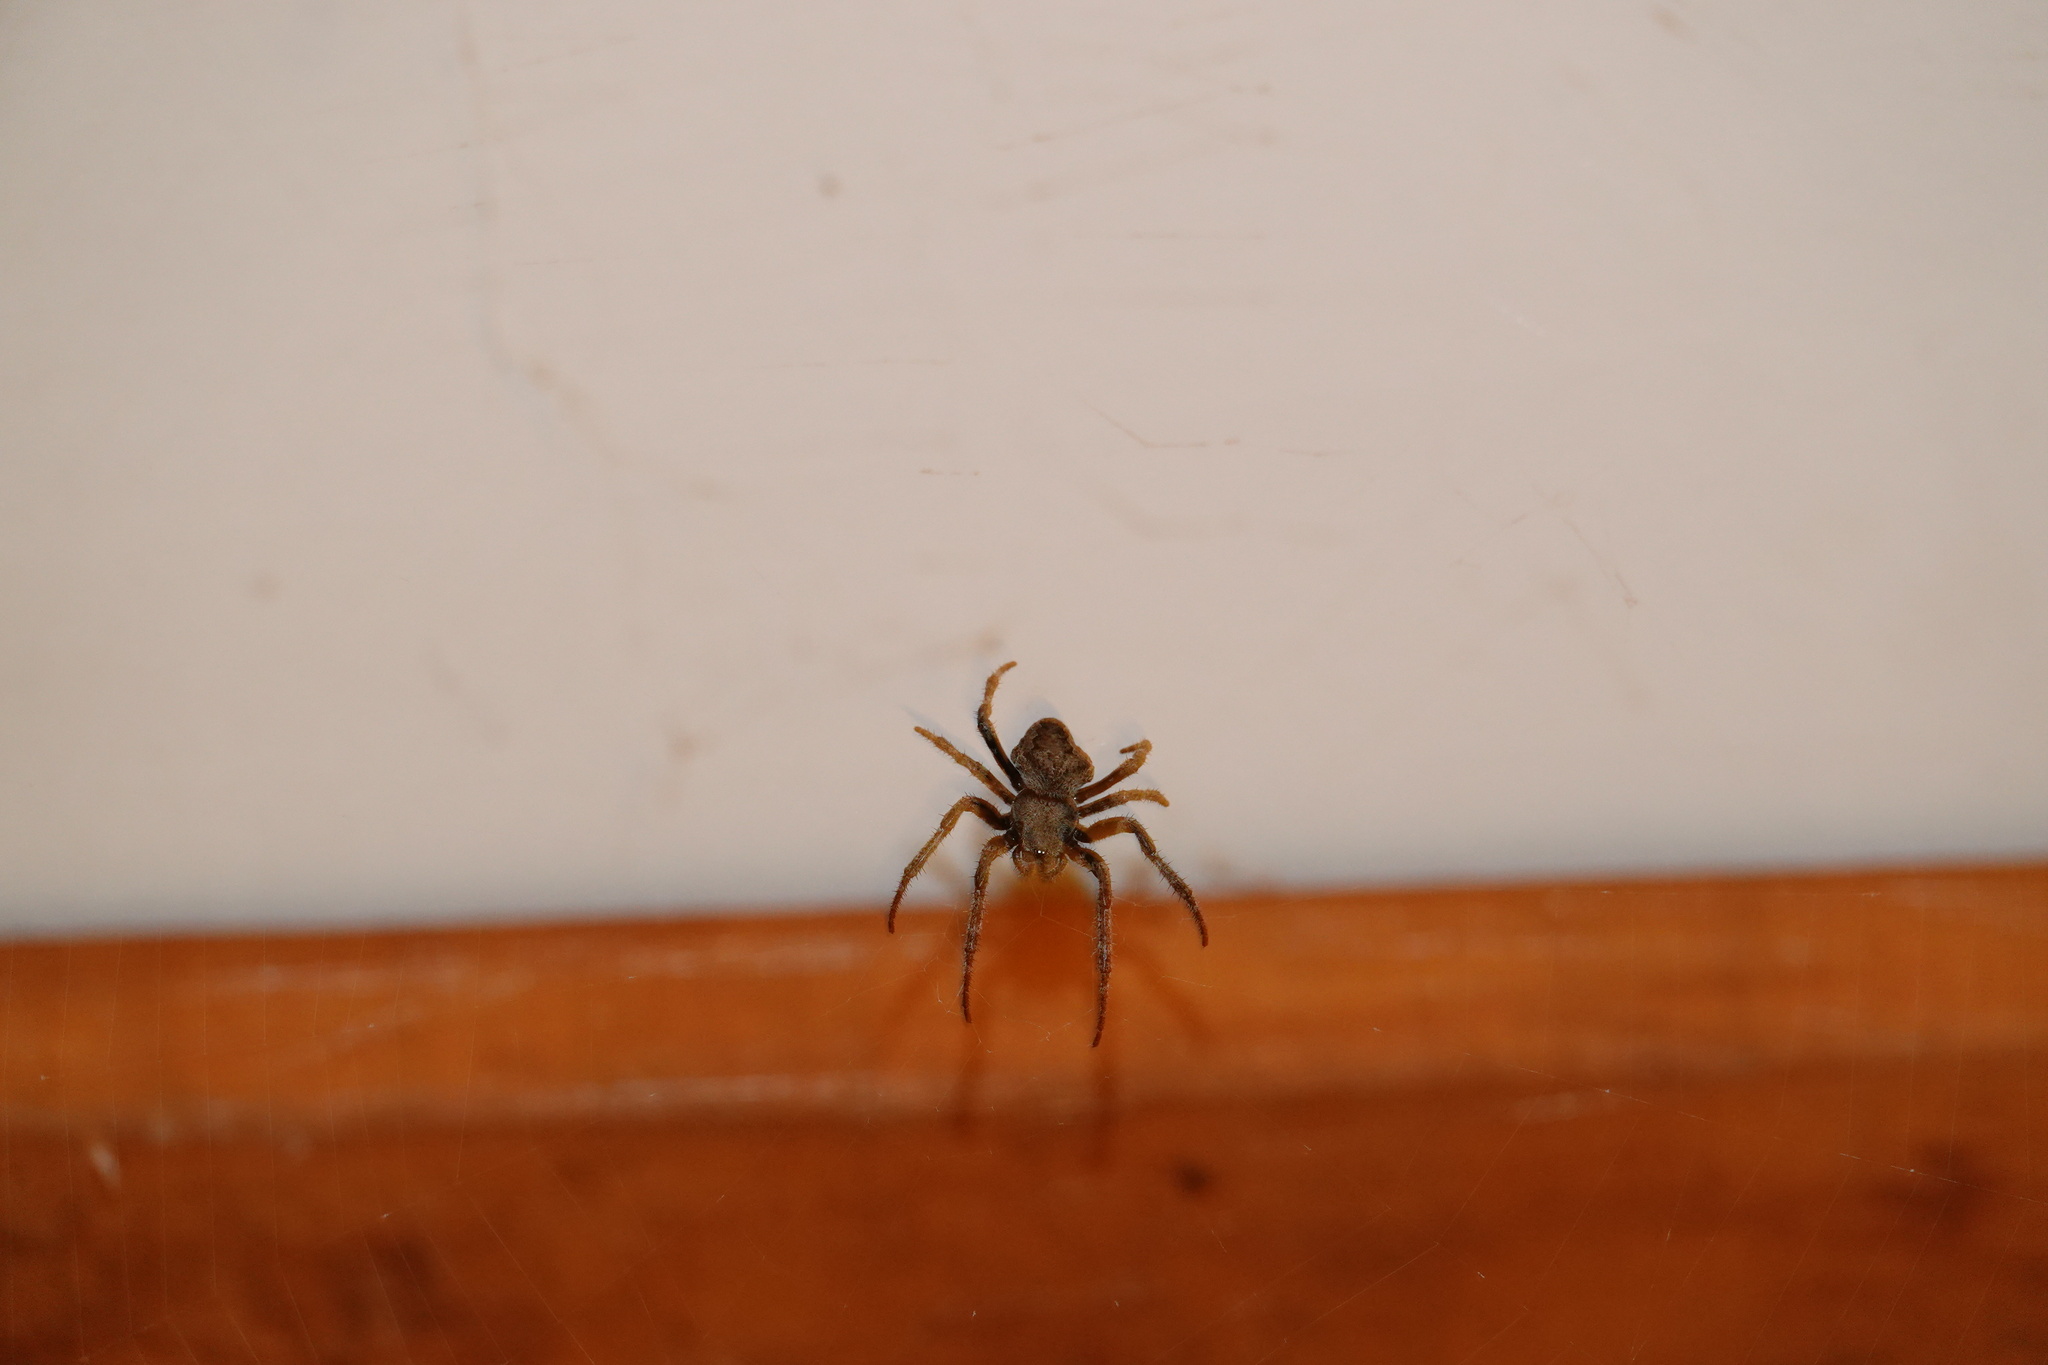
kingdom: Animalia
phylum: Arthropoda
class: Arachnida
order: Araneae
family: Araneidae
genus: Araneus
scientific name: Araneus ventricosus
